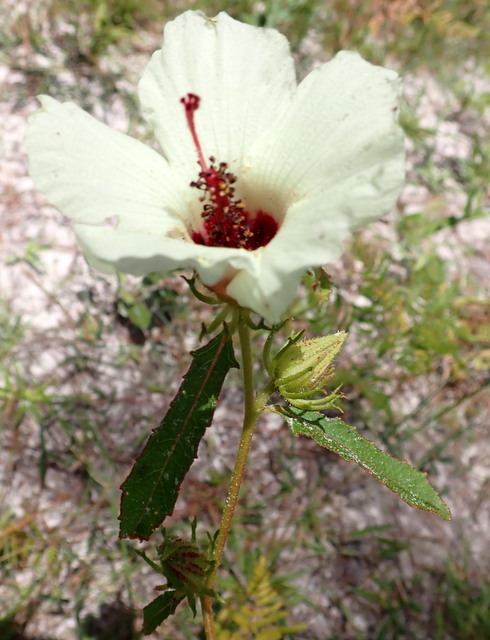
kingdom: Plantae
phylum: Tracheophyta
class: Magnoliopsida
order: Malvales
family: Malvaceae
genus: Hibiscus
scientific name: Hibiscus aculeatus
